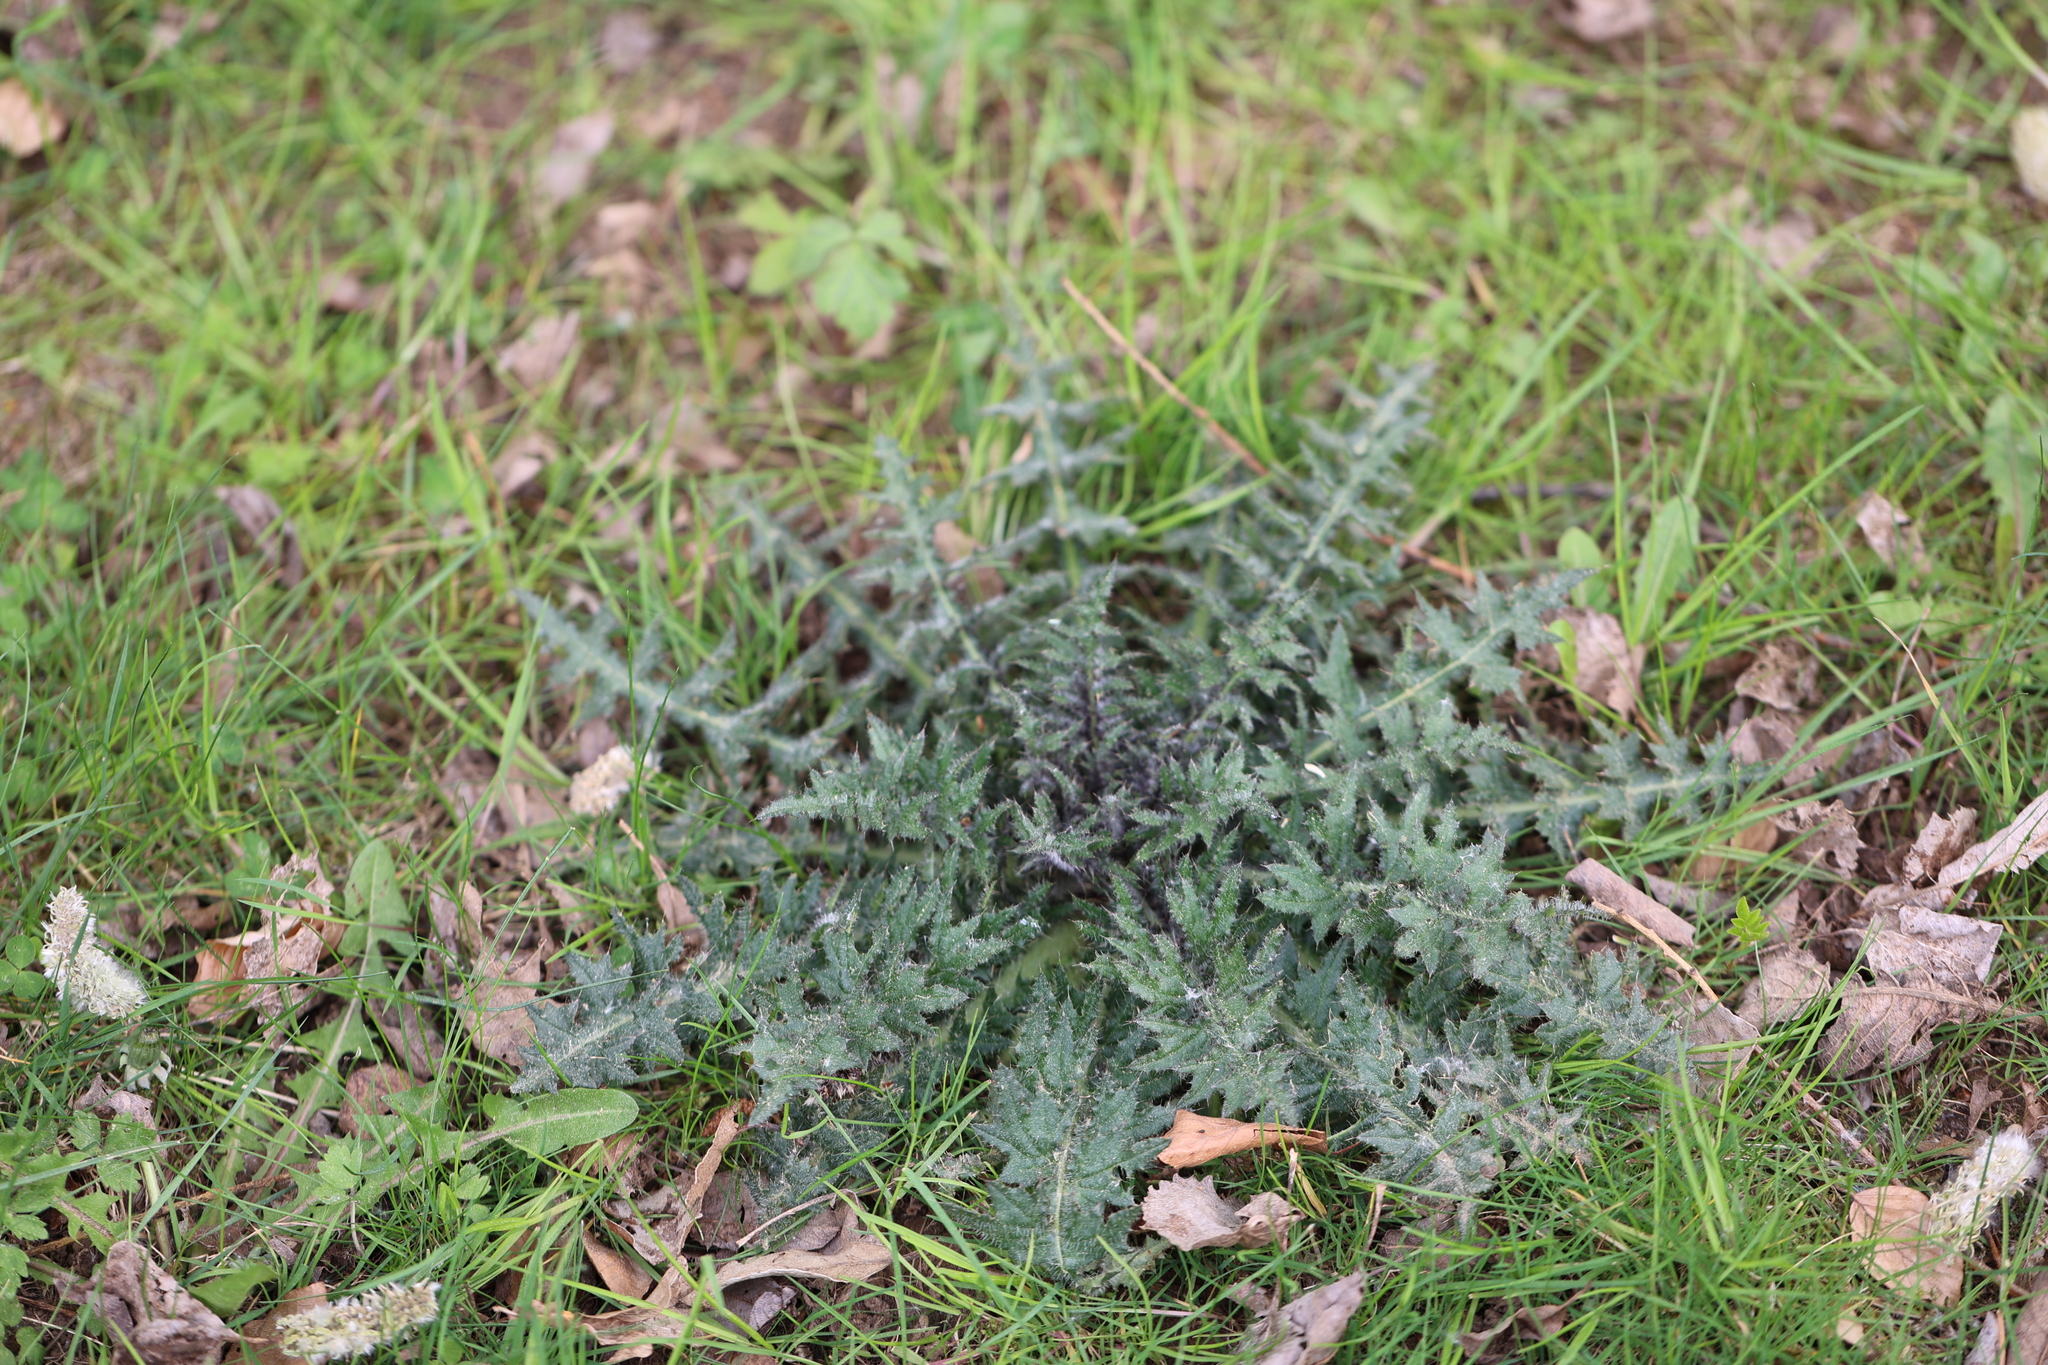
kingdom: Plantae
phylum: Tracheophyta
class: Magnoliopsida
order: Asterales
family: Asteraceae
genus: Cirsium
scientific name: Cirsium palustre
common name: Marsh thistle
